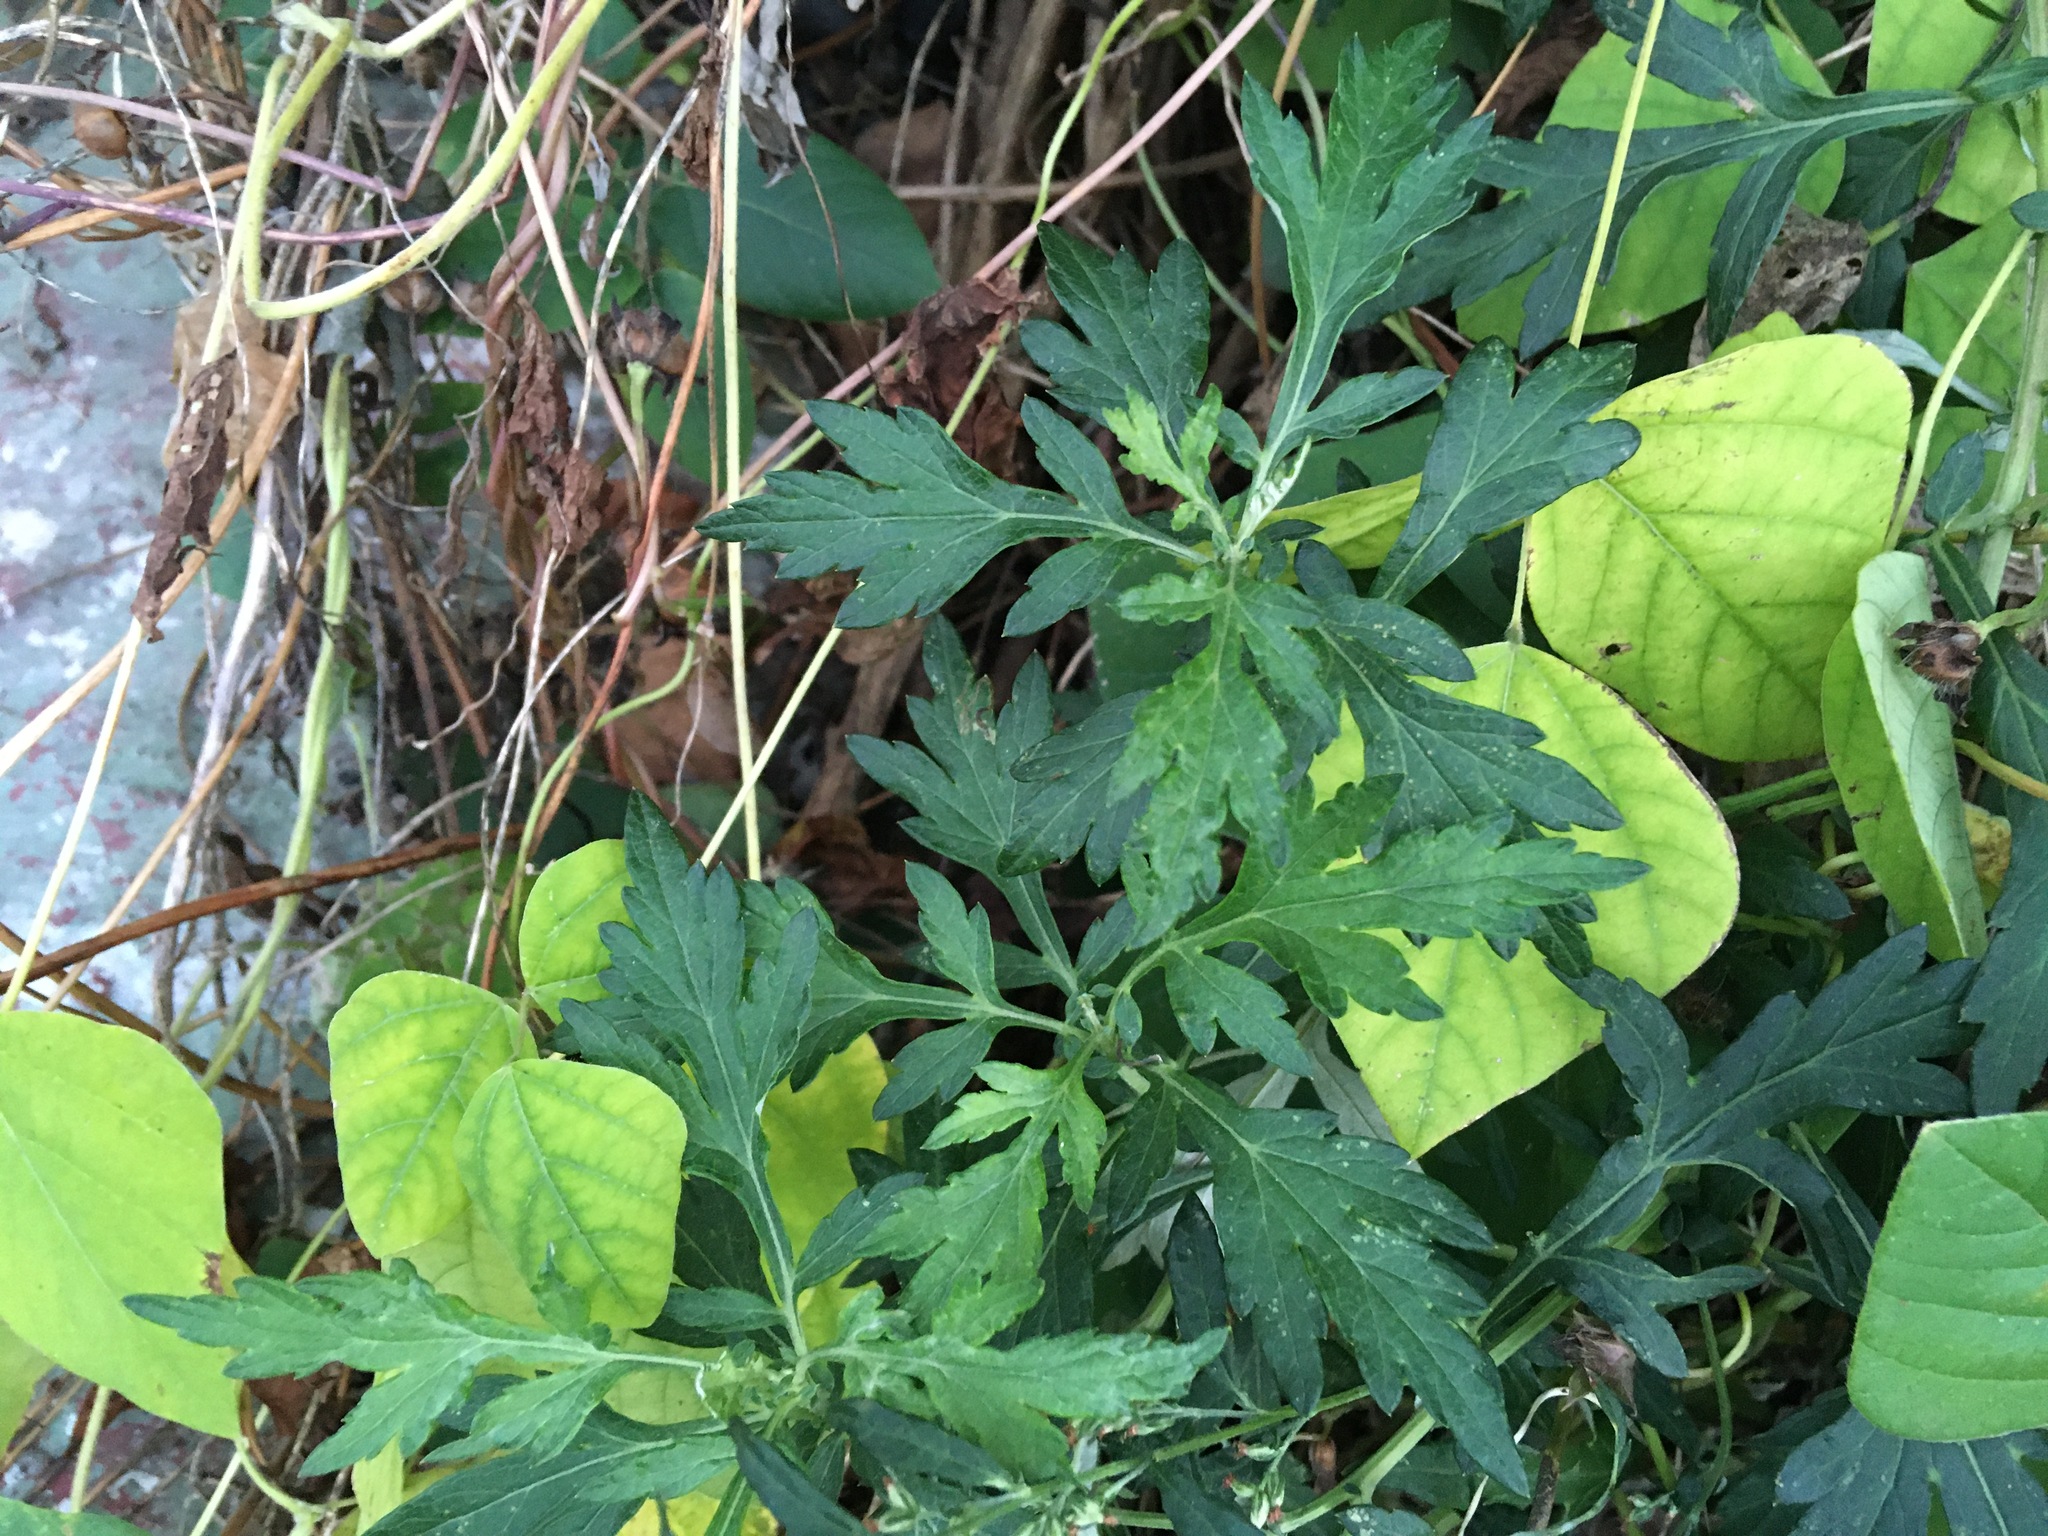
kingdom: Plantae
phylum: Tracheophyta
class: Magnoliopsida
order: Asterales
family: Asteraceae
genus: Artemisia
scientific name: Artemisia vulgaris
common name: Mugwort
